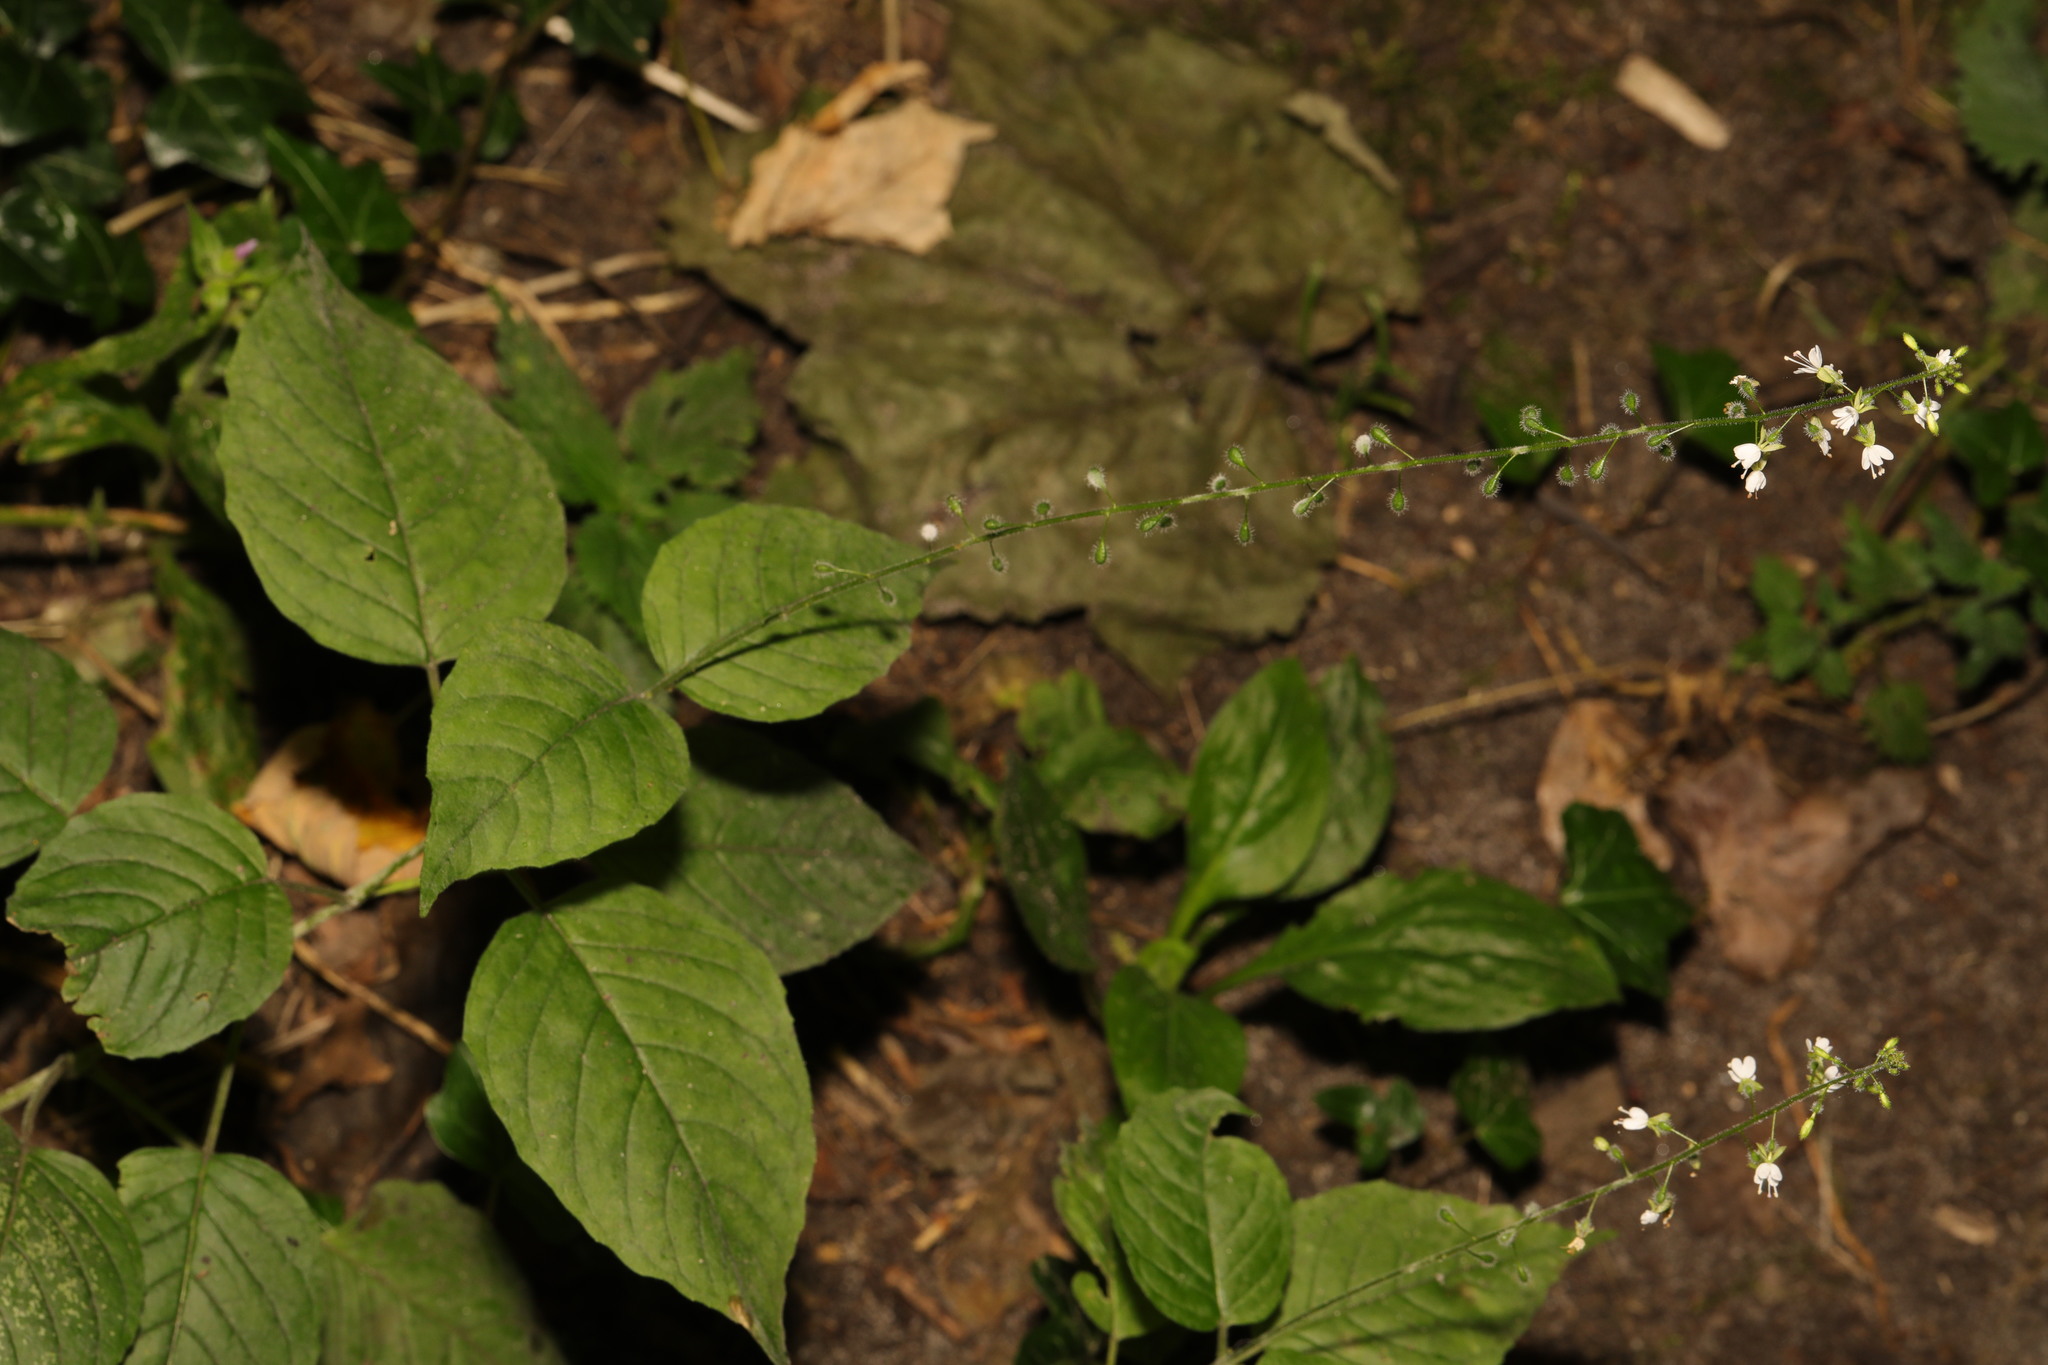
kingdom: Plantae
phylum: Tracheophyta
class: Magnoliopsida
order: Myrtales
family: Onagraceae
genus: Circaea
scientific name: Circaea lutetiana
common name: Enchanter's-nightshade
